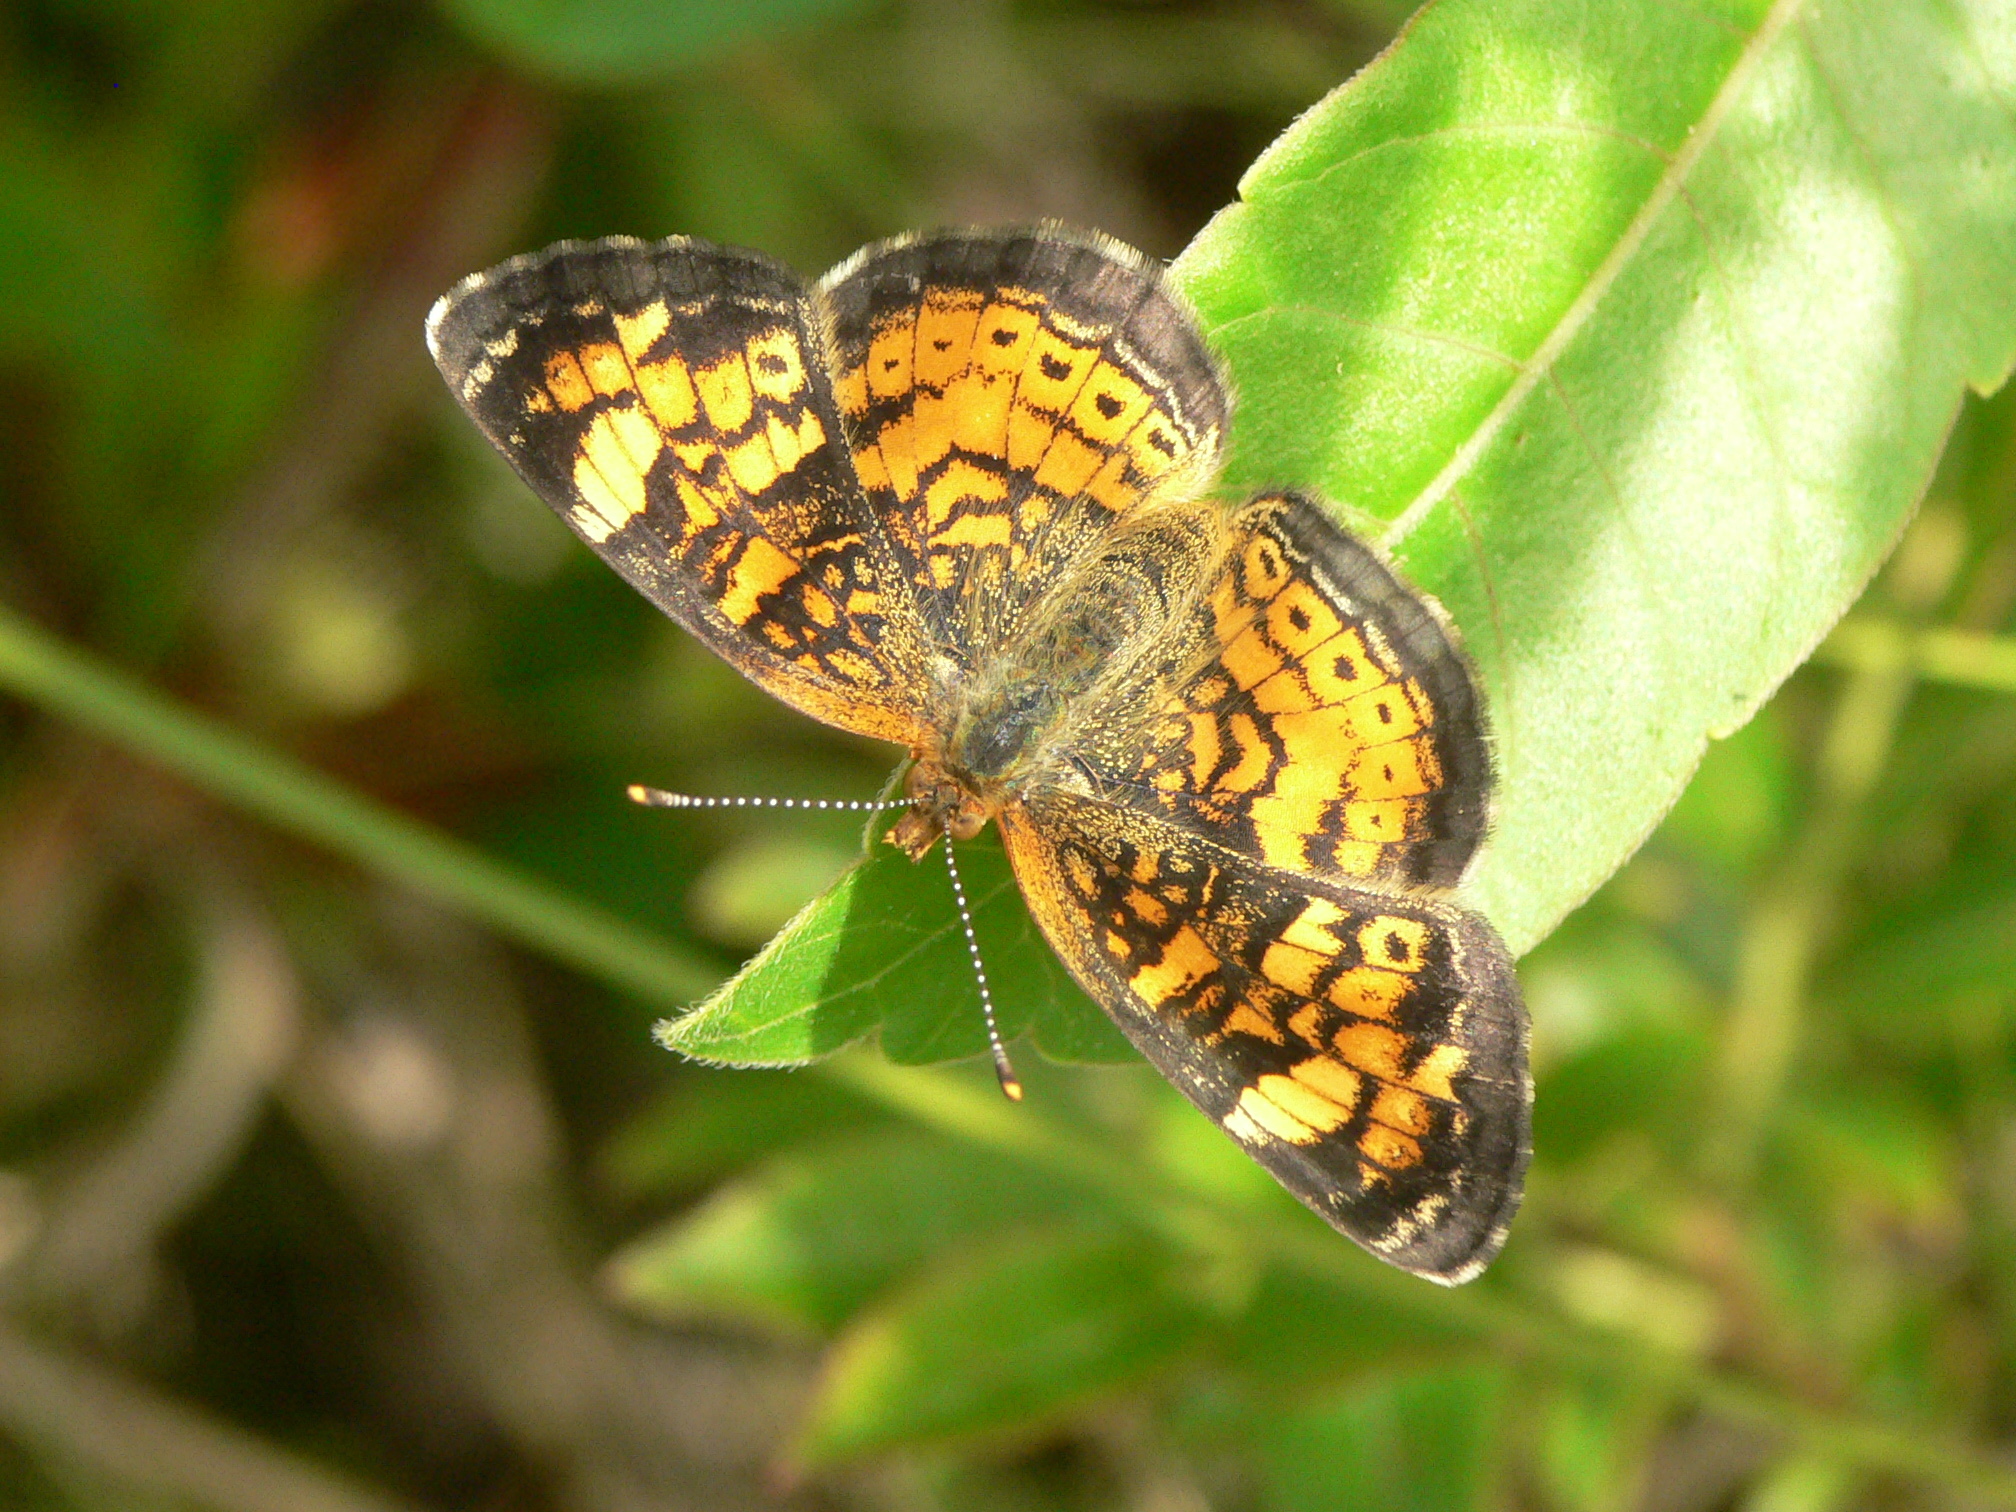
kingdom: Animalia
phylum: Arthropoda
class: Insecta
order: Lepidoptera
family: Nymphalidae
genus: Phyciodes
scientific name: Phyciodes tharos
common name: Pearl crescent
